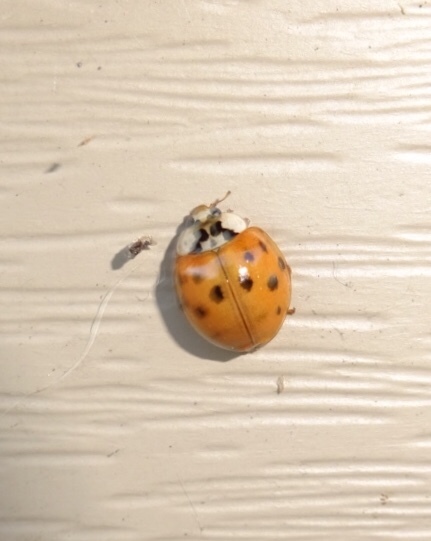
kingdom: Animalia
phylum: Arthropoda
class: Insecta
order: Coleoptera
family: Coccinellidae
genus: Harmonia
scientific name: Harmonia axyridis
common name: Harlequin ladybird
